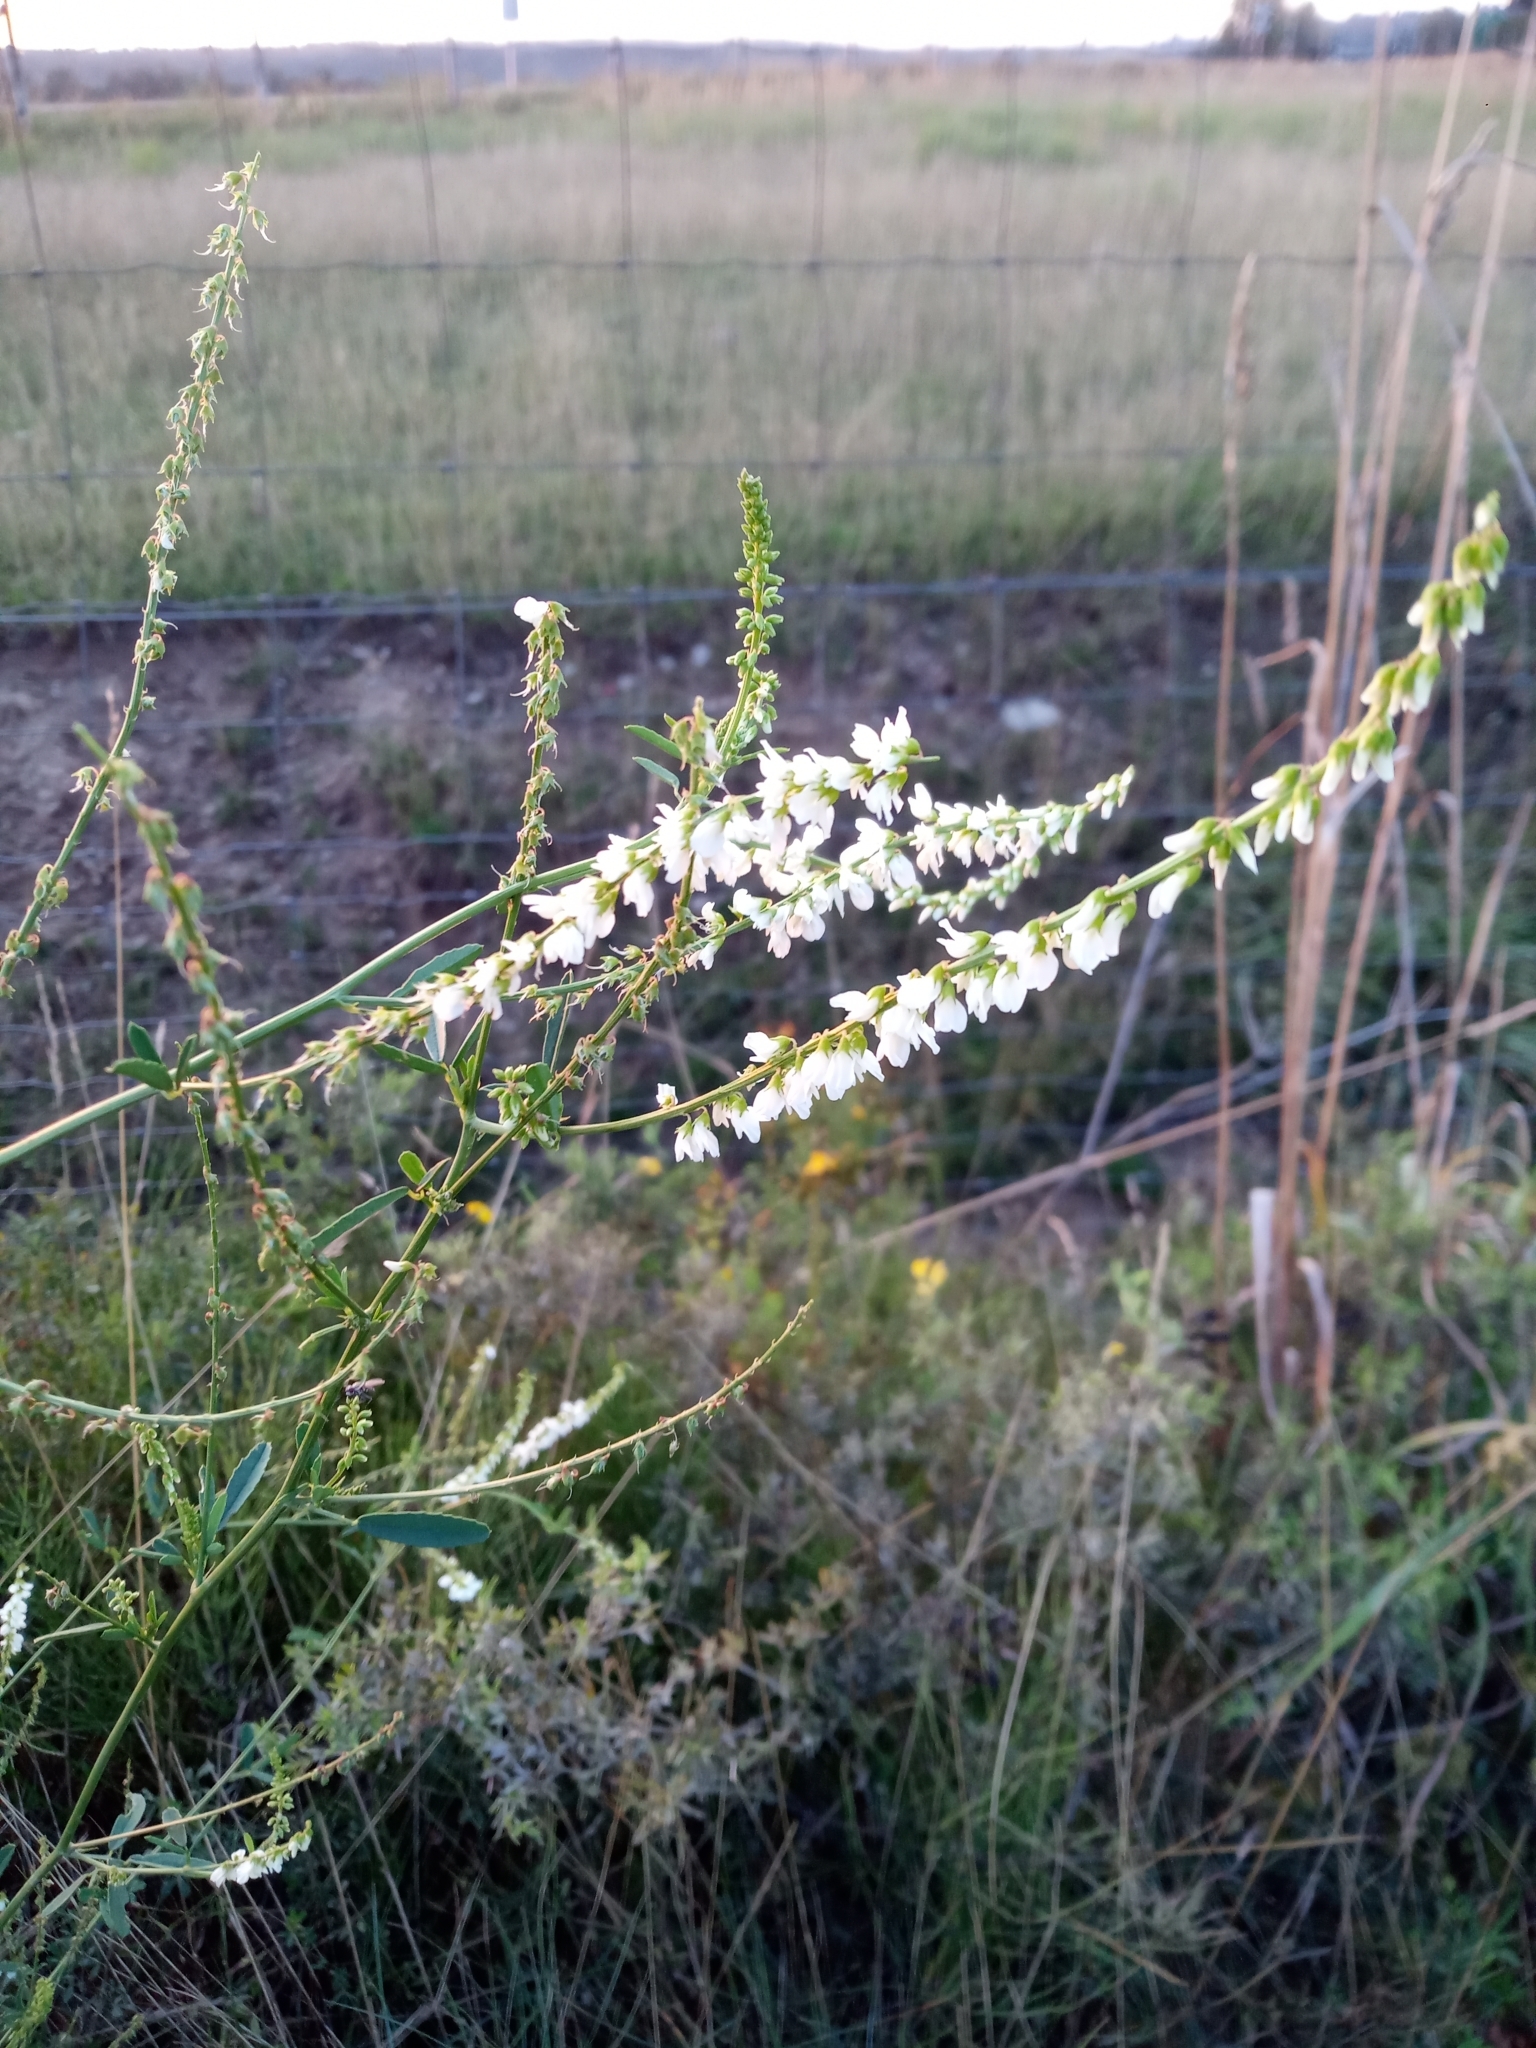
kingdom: Plantae
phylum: Tracheophyta
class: Magnoliopsida
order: Fabales
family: Fabaceae
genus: Melilotus
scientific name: Melilotus albus
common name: White melilot
